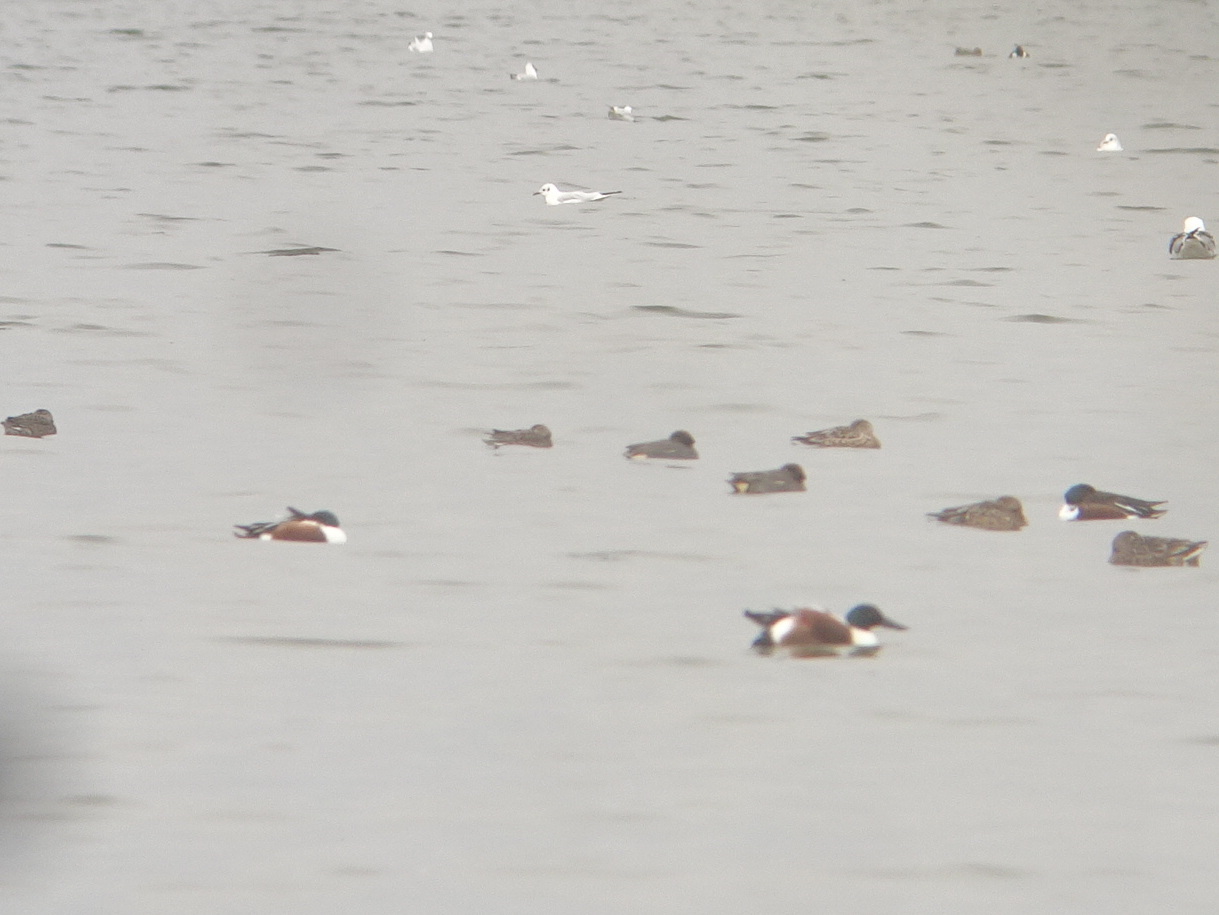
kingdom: Animalia
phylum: Chordata
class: Aves
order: Anseriformes
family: Anatidae
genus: Spatula
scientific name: Spatula clypeata
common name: Northern shoveler
